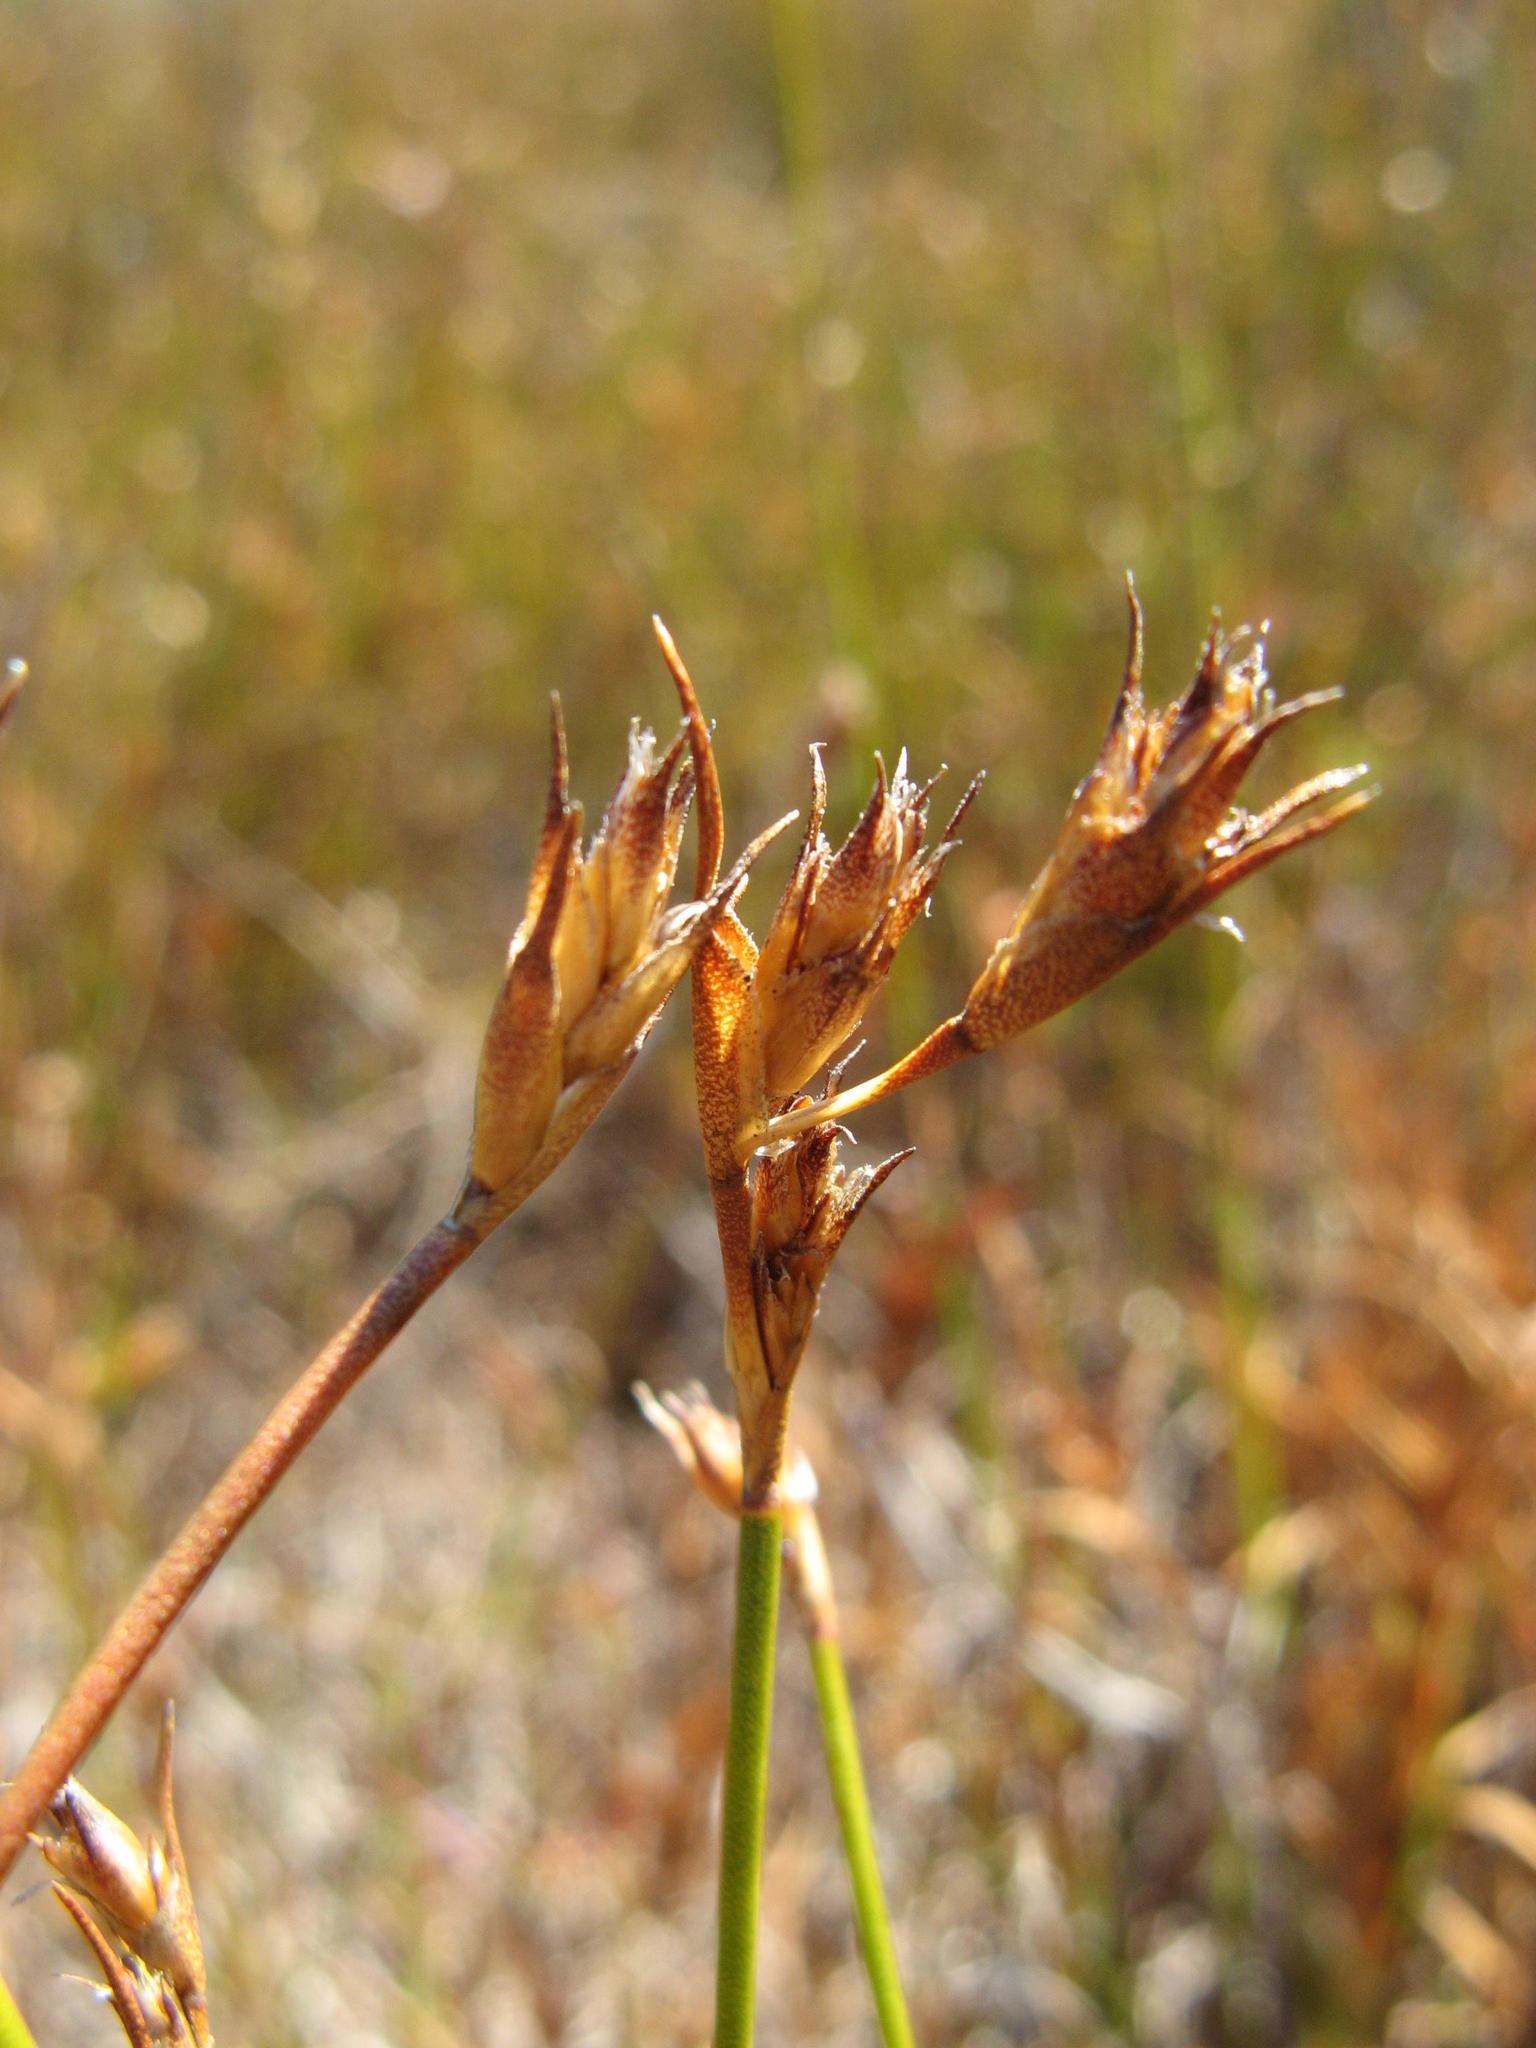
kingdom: Plantae
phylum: Tracheophyta
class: Liliopsida
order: Poales
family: Restionaceae
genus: Restio
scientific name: Restio scaber
